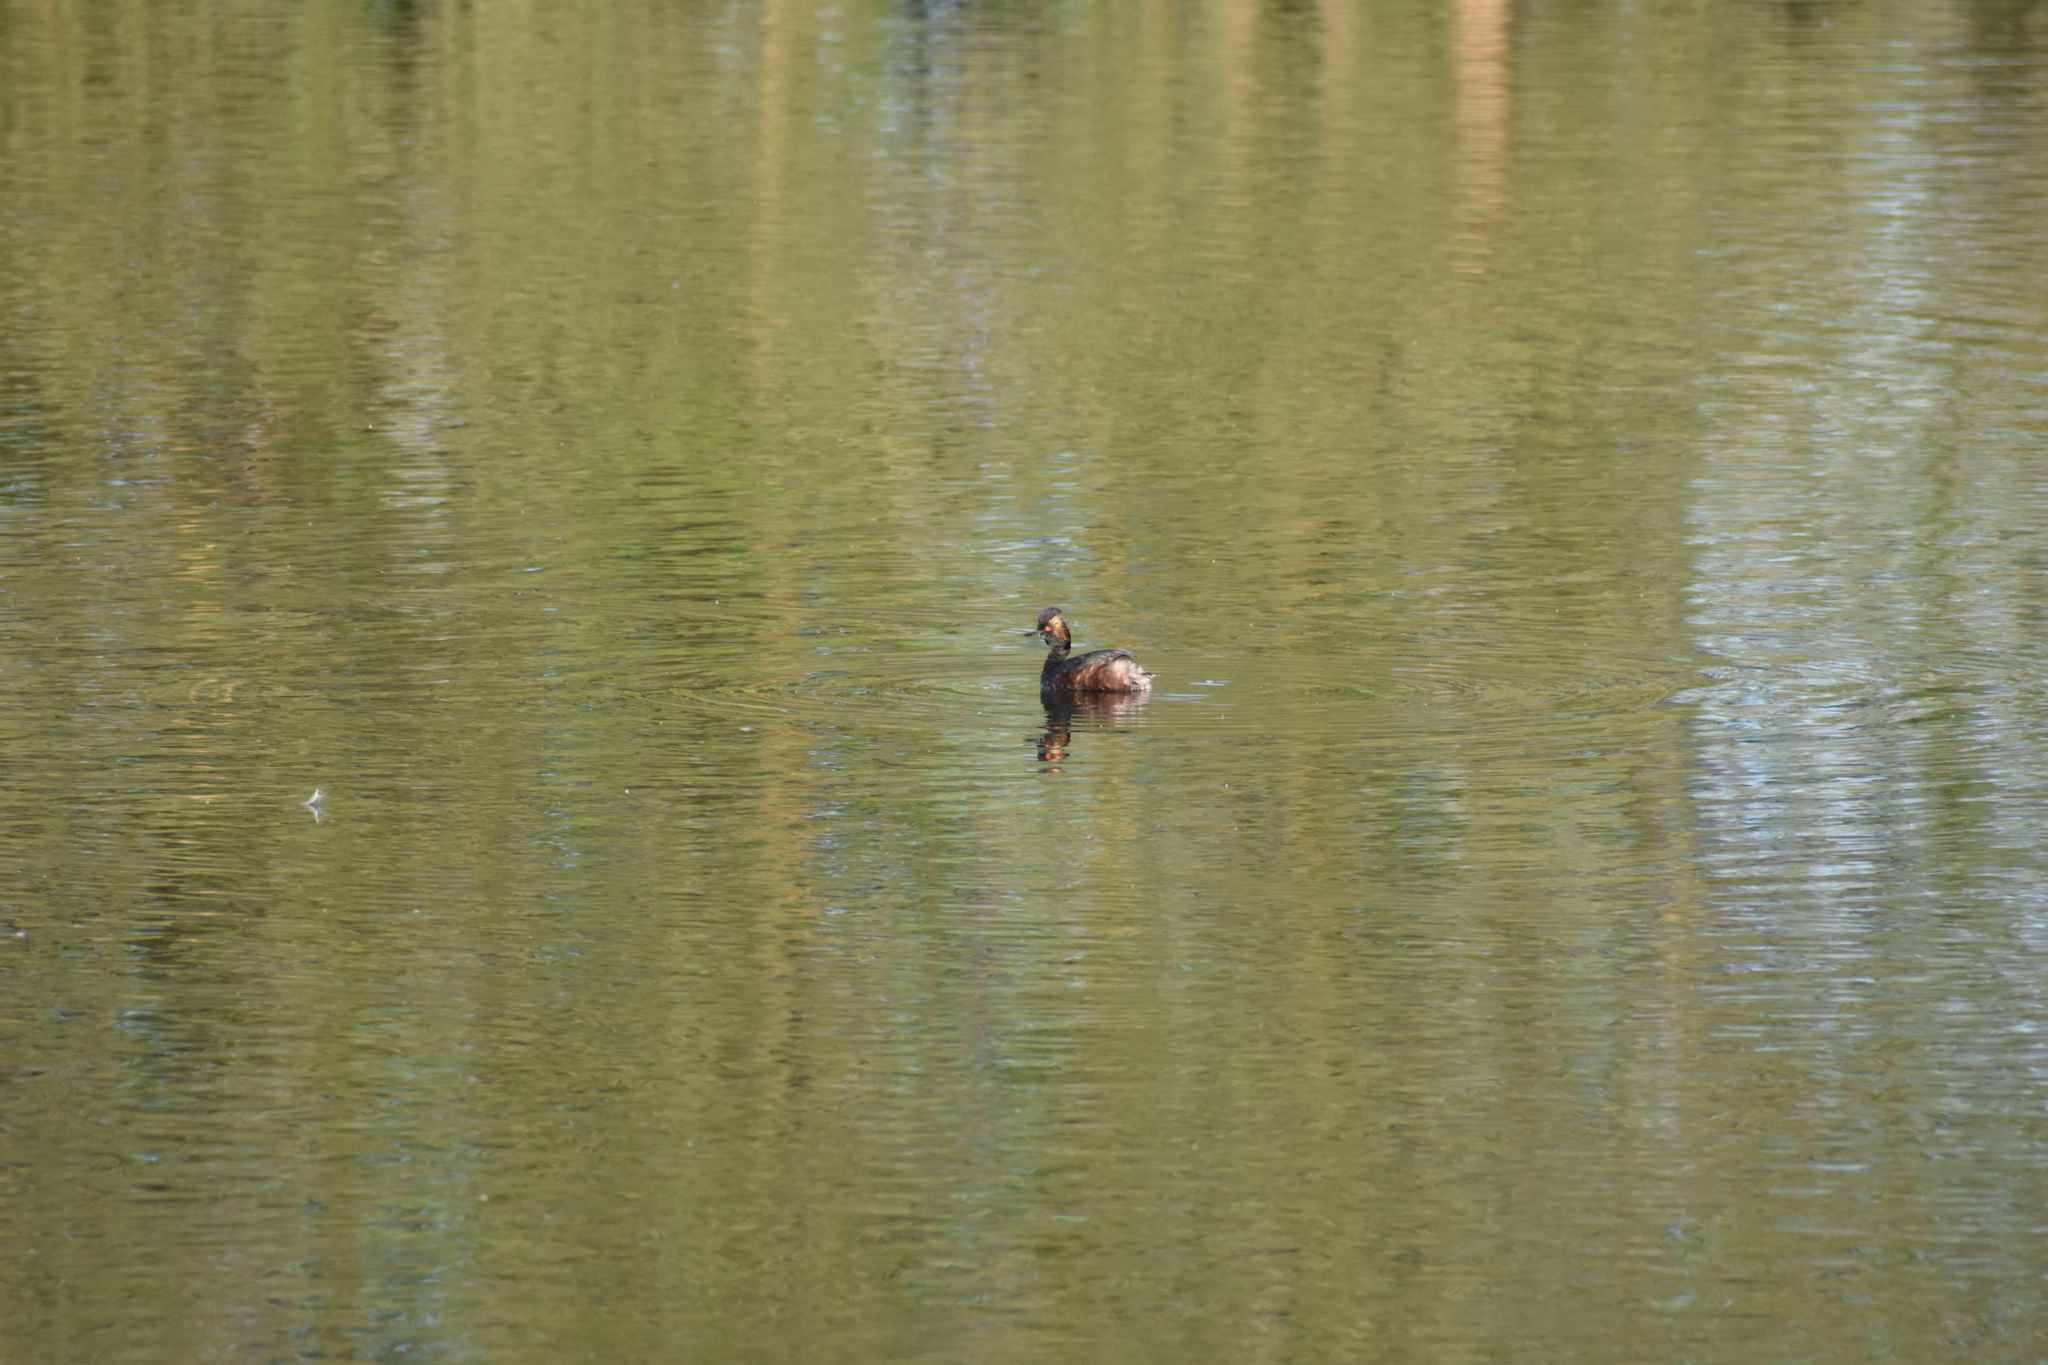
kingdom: Animalia
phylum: Chordata
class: Aves
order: Podicipediformes
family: Podicipedidae
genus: Podiceps
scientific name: Podiceps nigricollis
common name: Black-necked grebe
